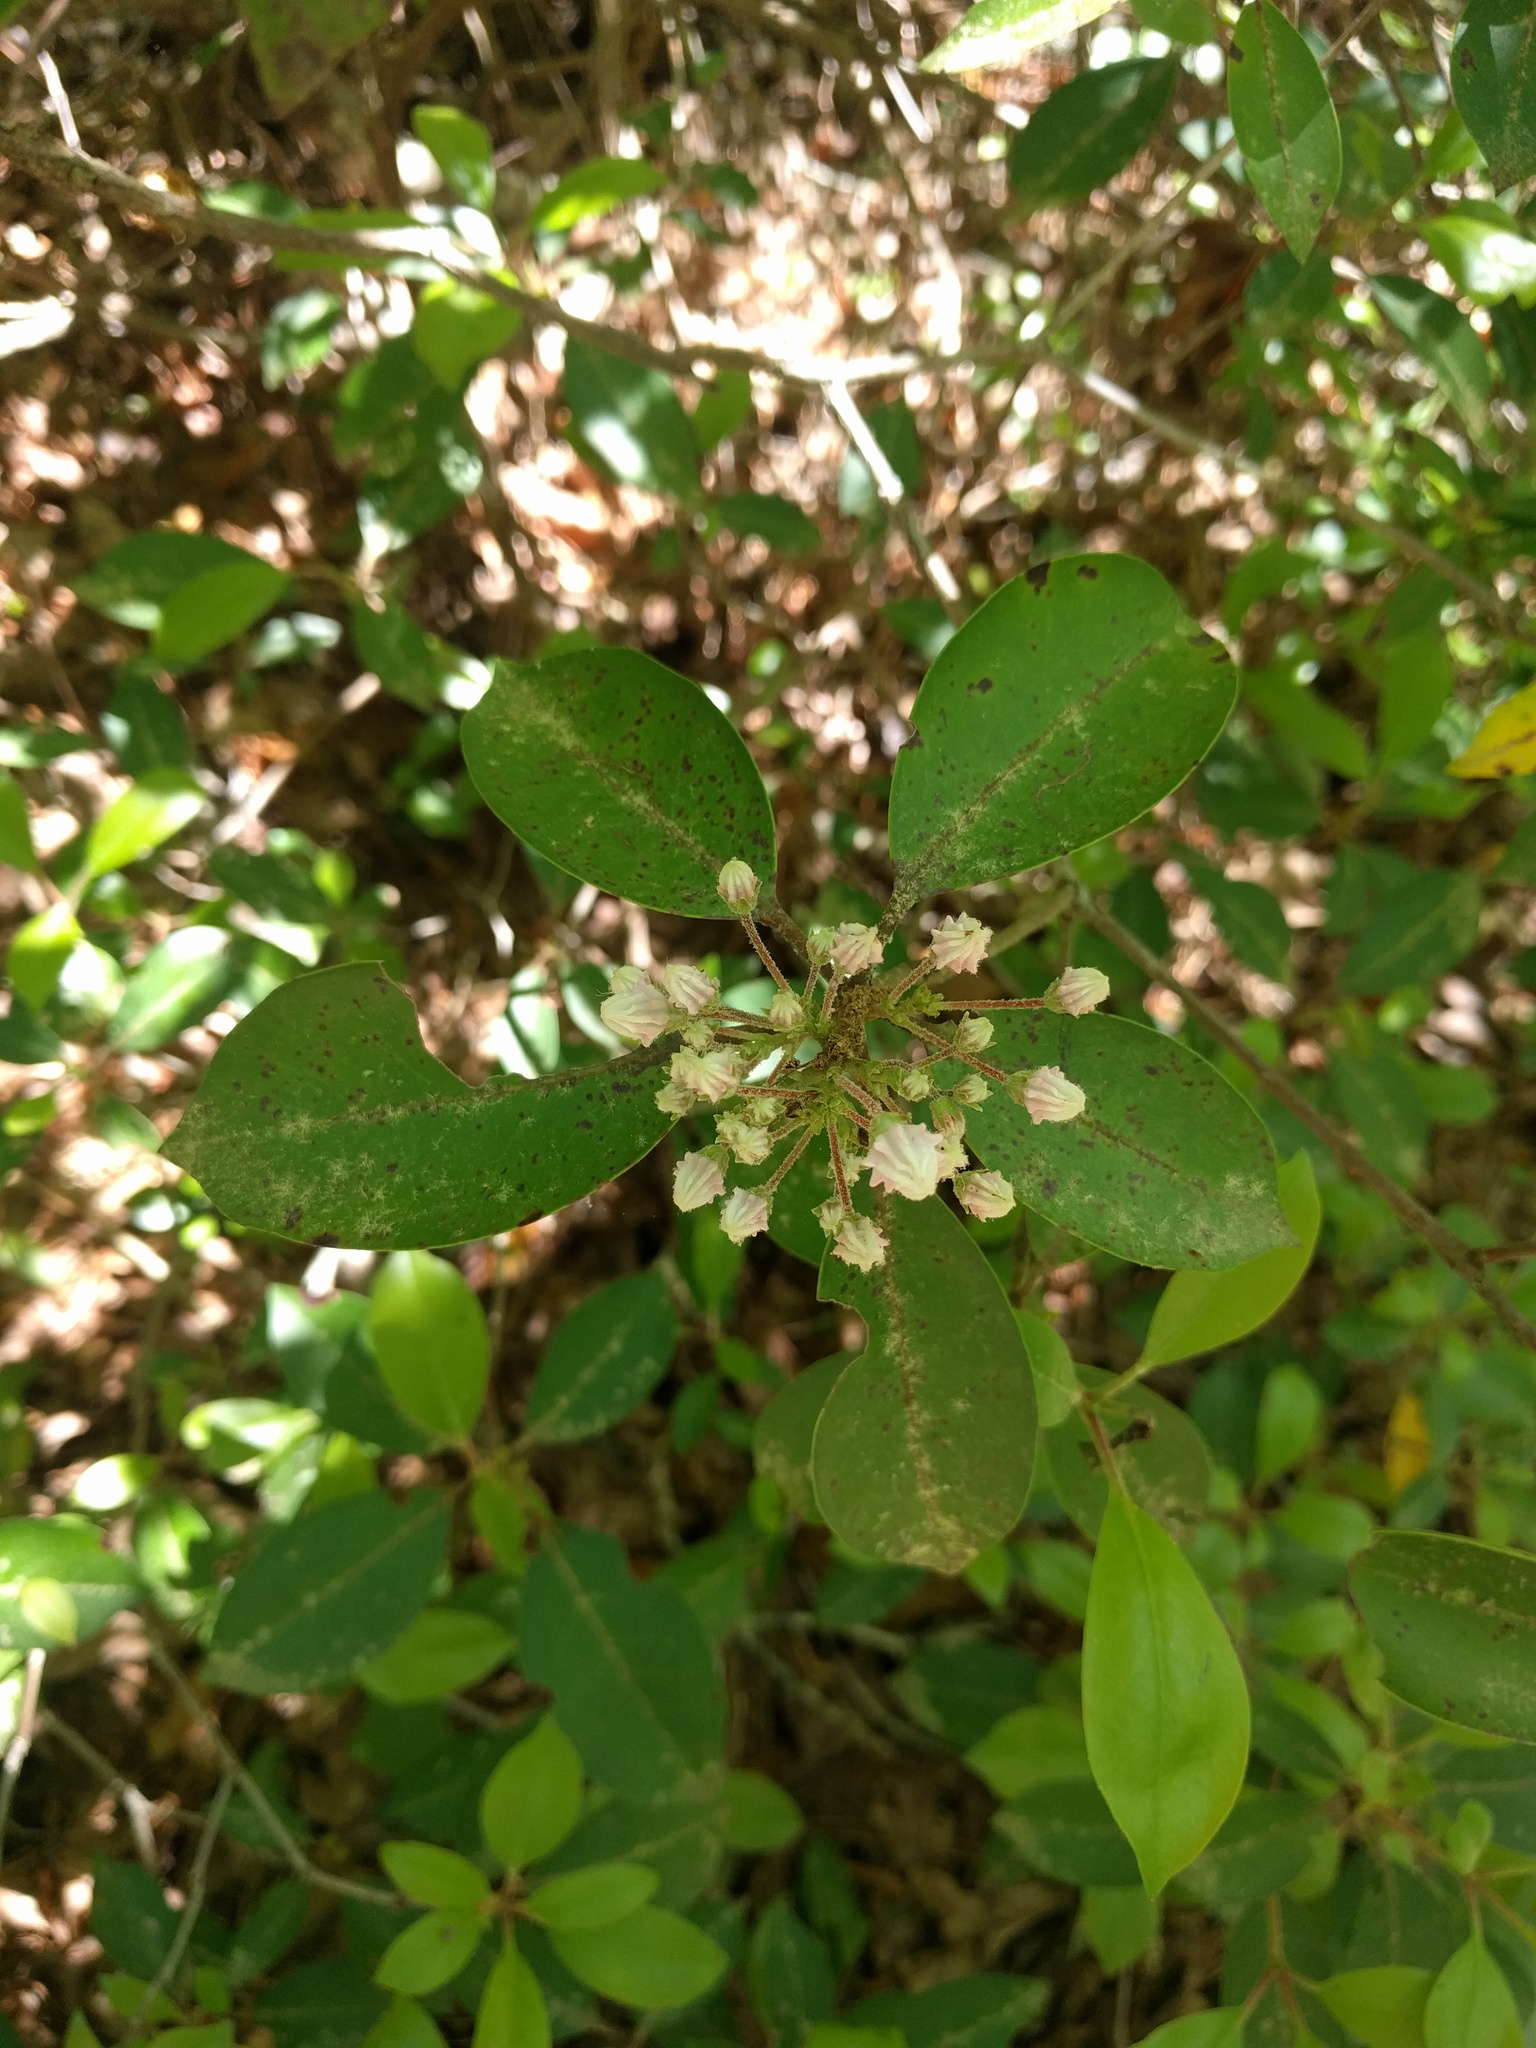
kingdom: Plantae
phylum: Tracheophyta
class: Magnoliopsida
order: Ericales
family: Ericaceae
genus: Kalmia
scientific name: Kalmia latifolia
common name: Mountain-laurel
